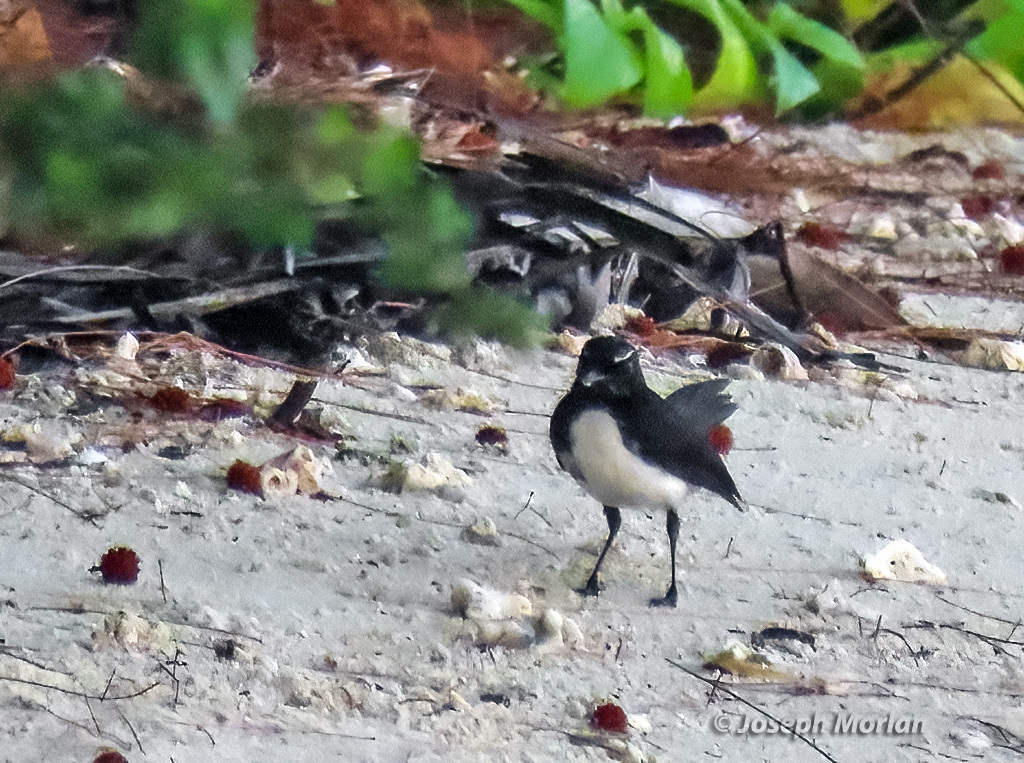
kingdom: Animalia
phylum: Chordata
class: Aves
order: Passeriformes
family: Rhipiduridae
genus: Rhipidura
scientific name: Rhipidura leucophrys
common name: Willie wagtail
